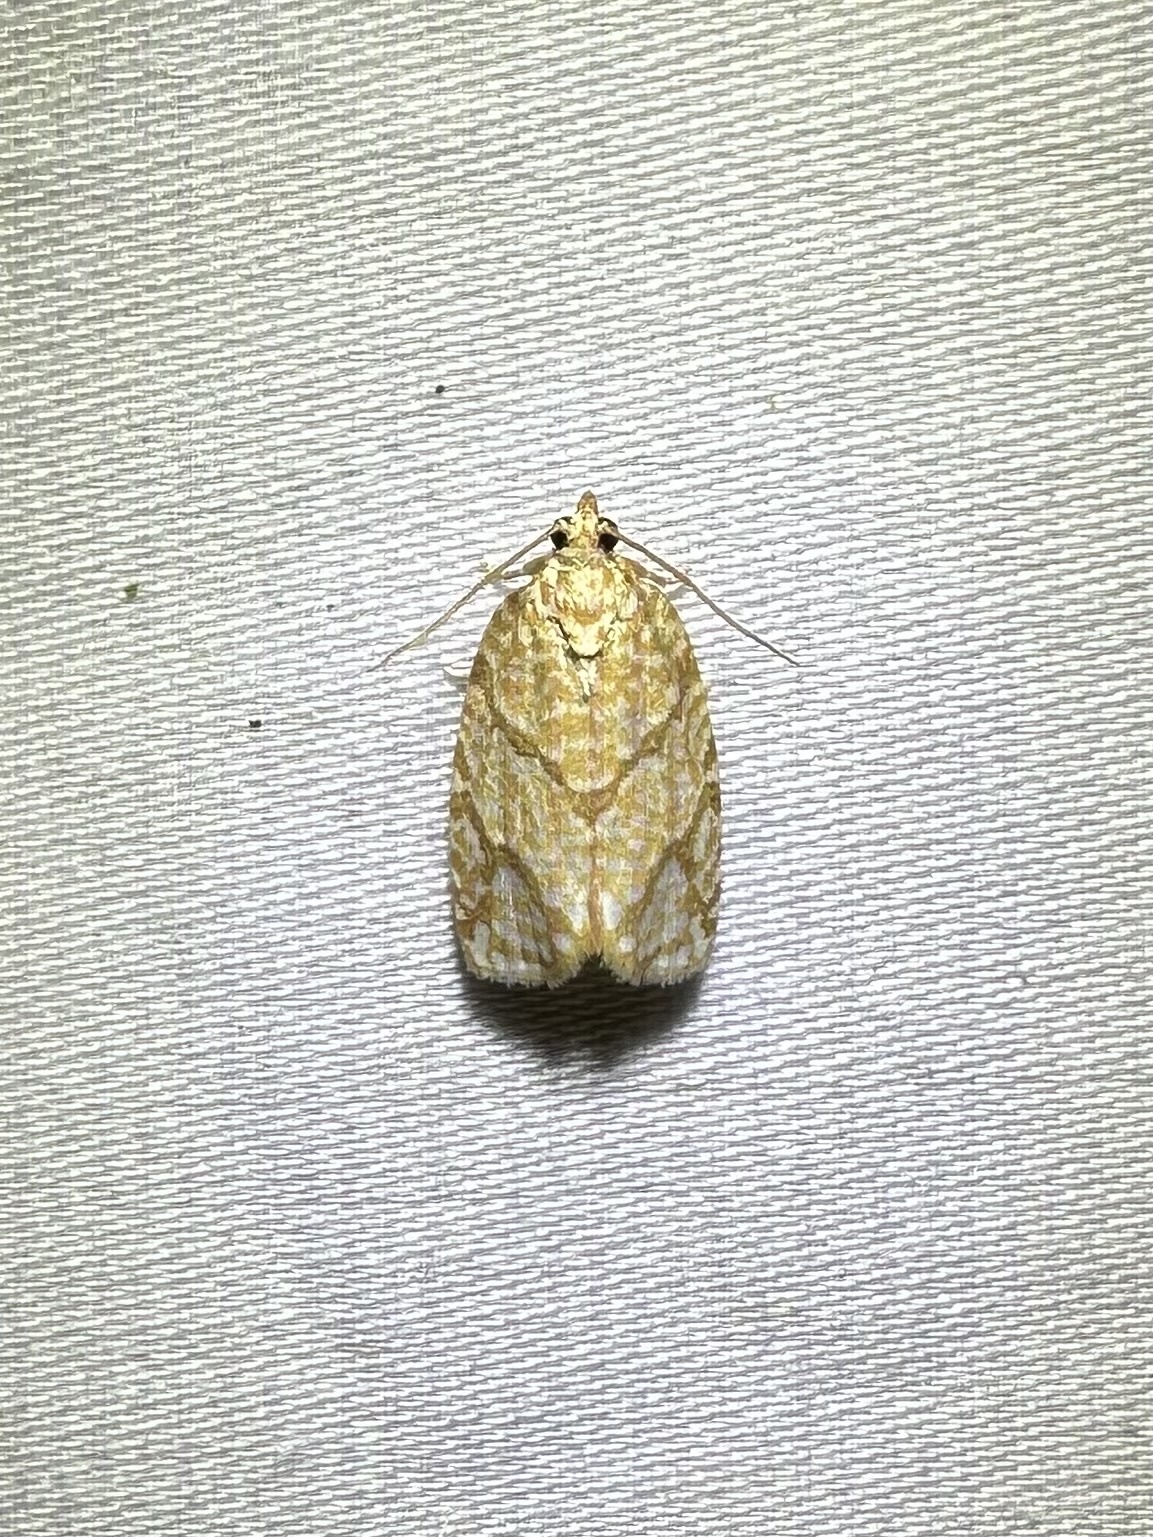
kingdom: Animalia
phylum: Arthropoda
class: Insecta
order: Lepidoptera
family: Tortricidae
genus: Argyrotaenia
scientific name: Argyrotaenia quercifoliana
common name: Yellow-winged oak leafroller moth
